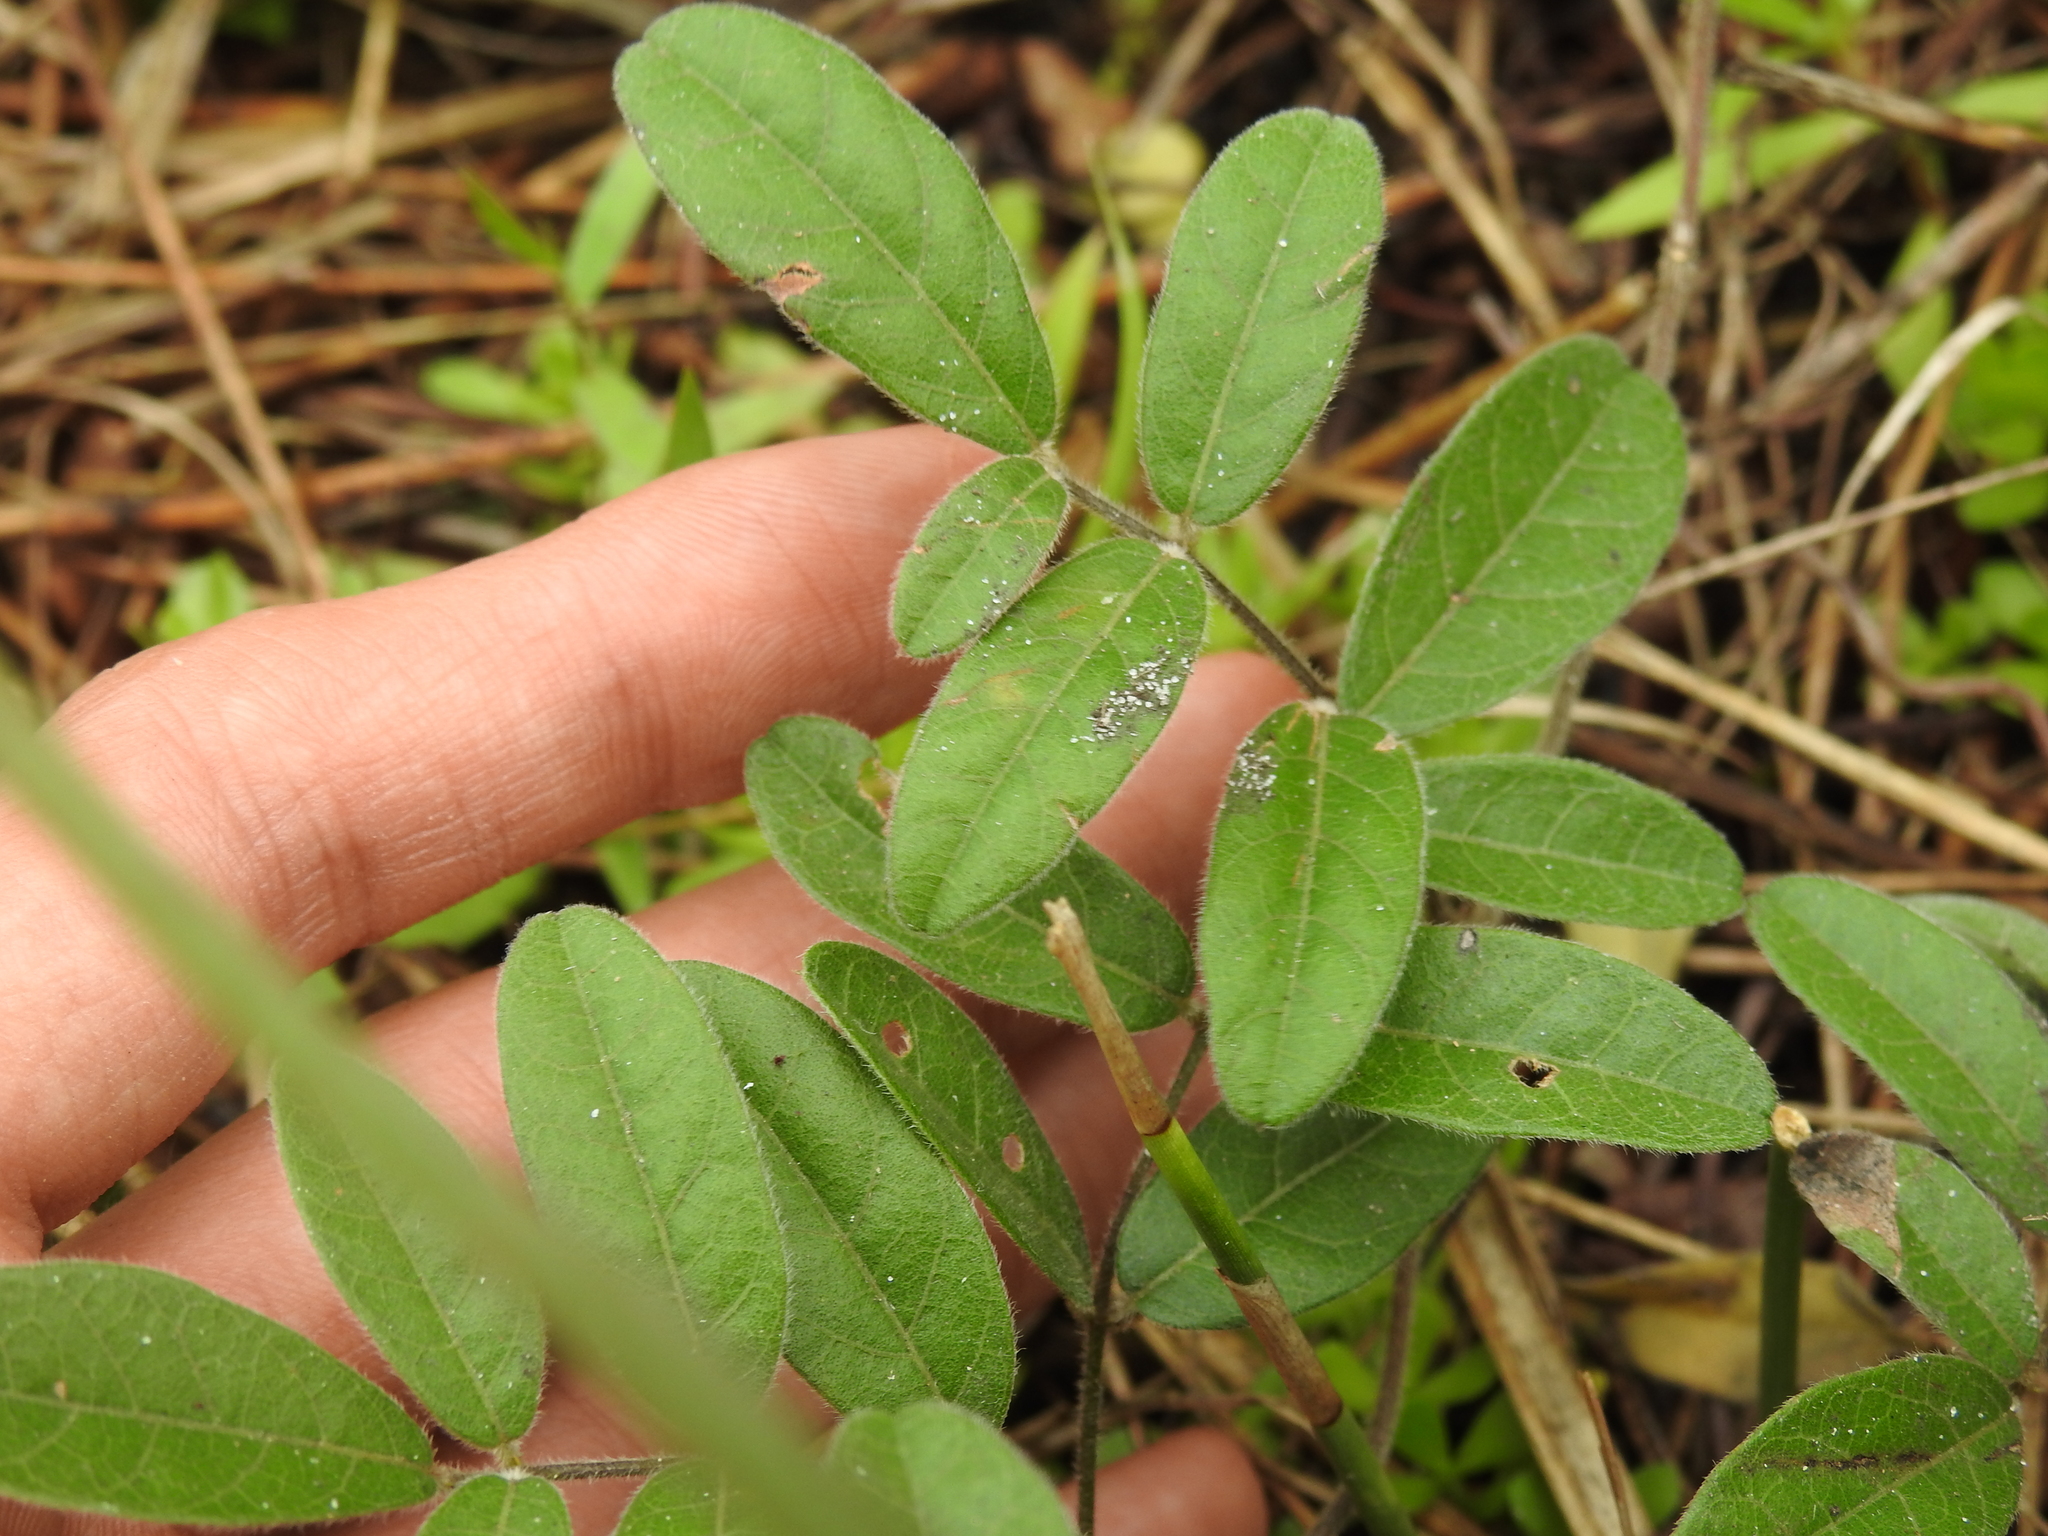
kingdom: Plantae
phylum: Tracheophyta
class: Magnoliopsida
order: Fabales
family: Fabaceae
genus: Galactia
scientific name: Galactia elliottii
